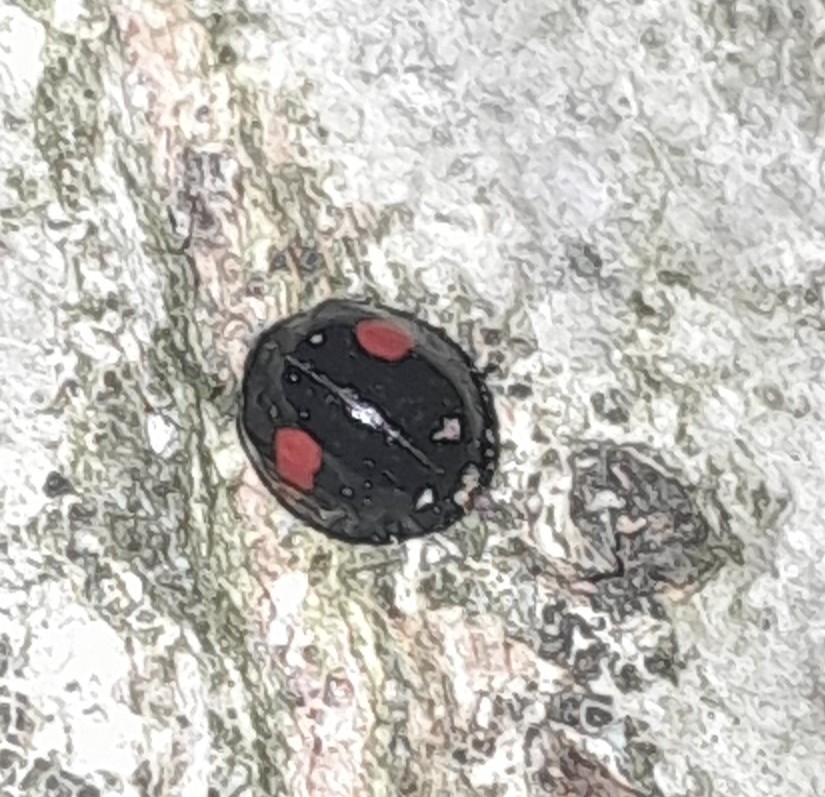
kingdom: Animalia
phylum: Arthropoda
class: Insecta
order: Coleoptera
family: Coccinellidae
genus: Chilocorus
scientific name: Chilocorus renipustulatus
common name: Kidney-spot ladybird
